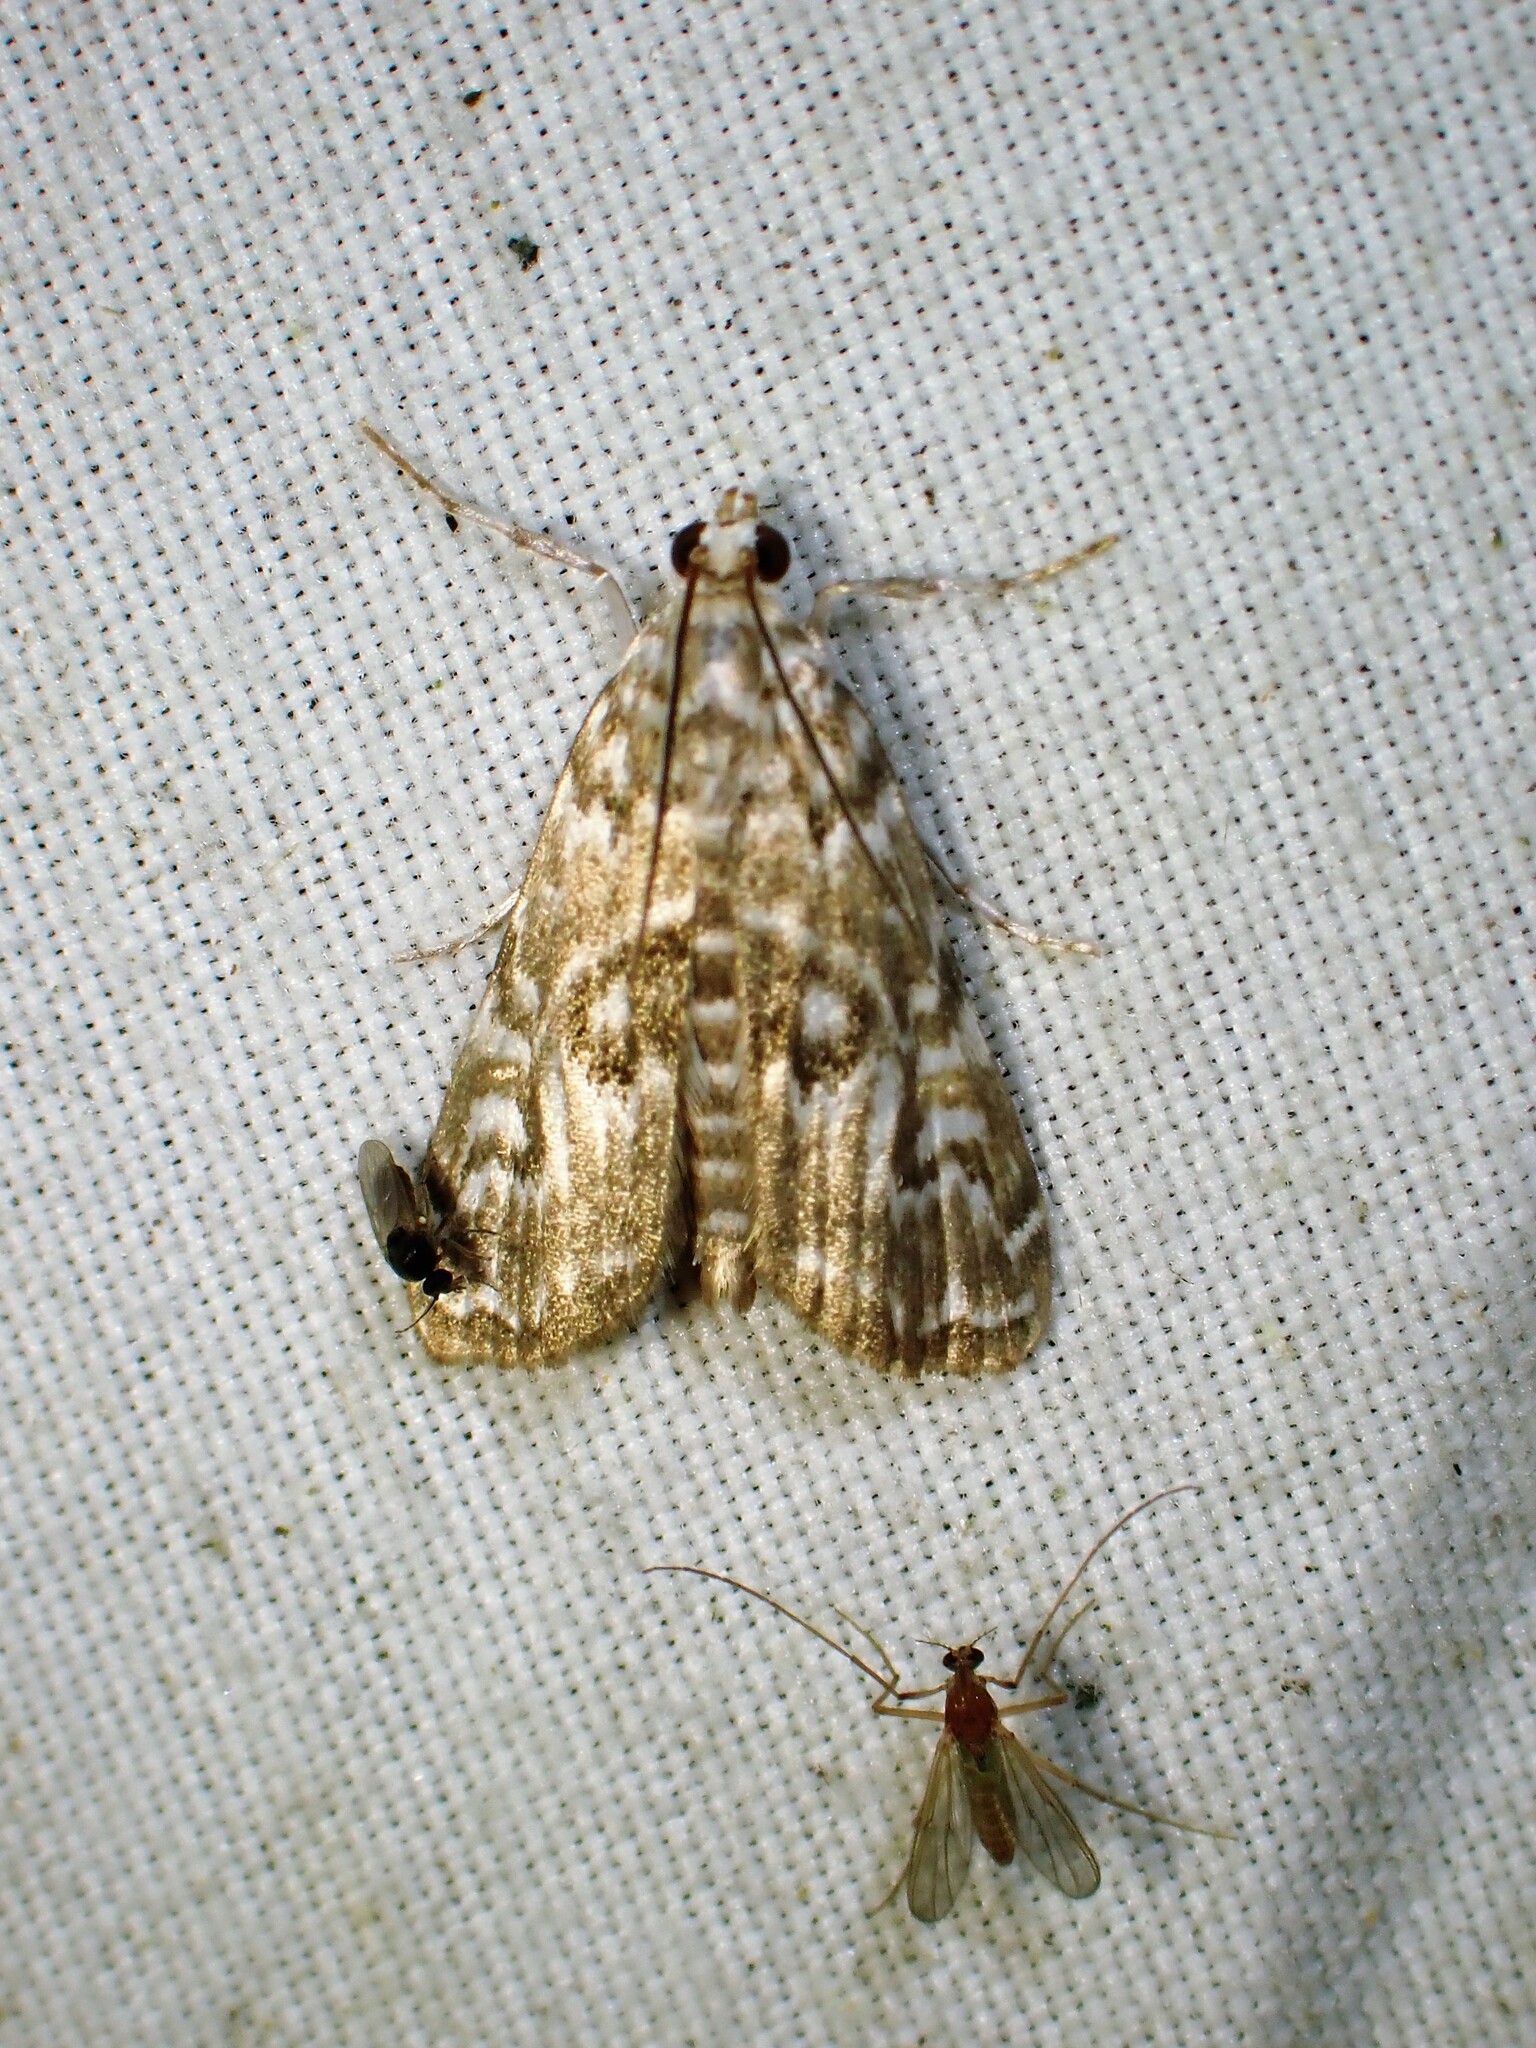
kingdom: Animalia
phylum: Arthropoda
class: Insecta
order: Lepidoptera
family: Crambidae
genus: Elophila
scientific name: Elophila gyralis
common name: Waterlily borer moth
